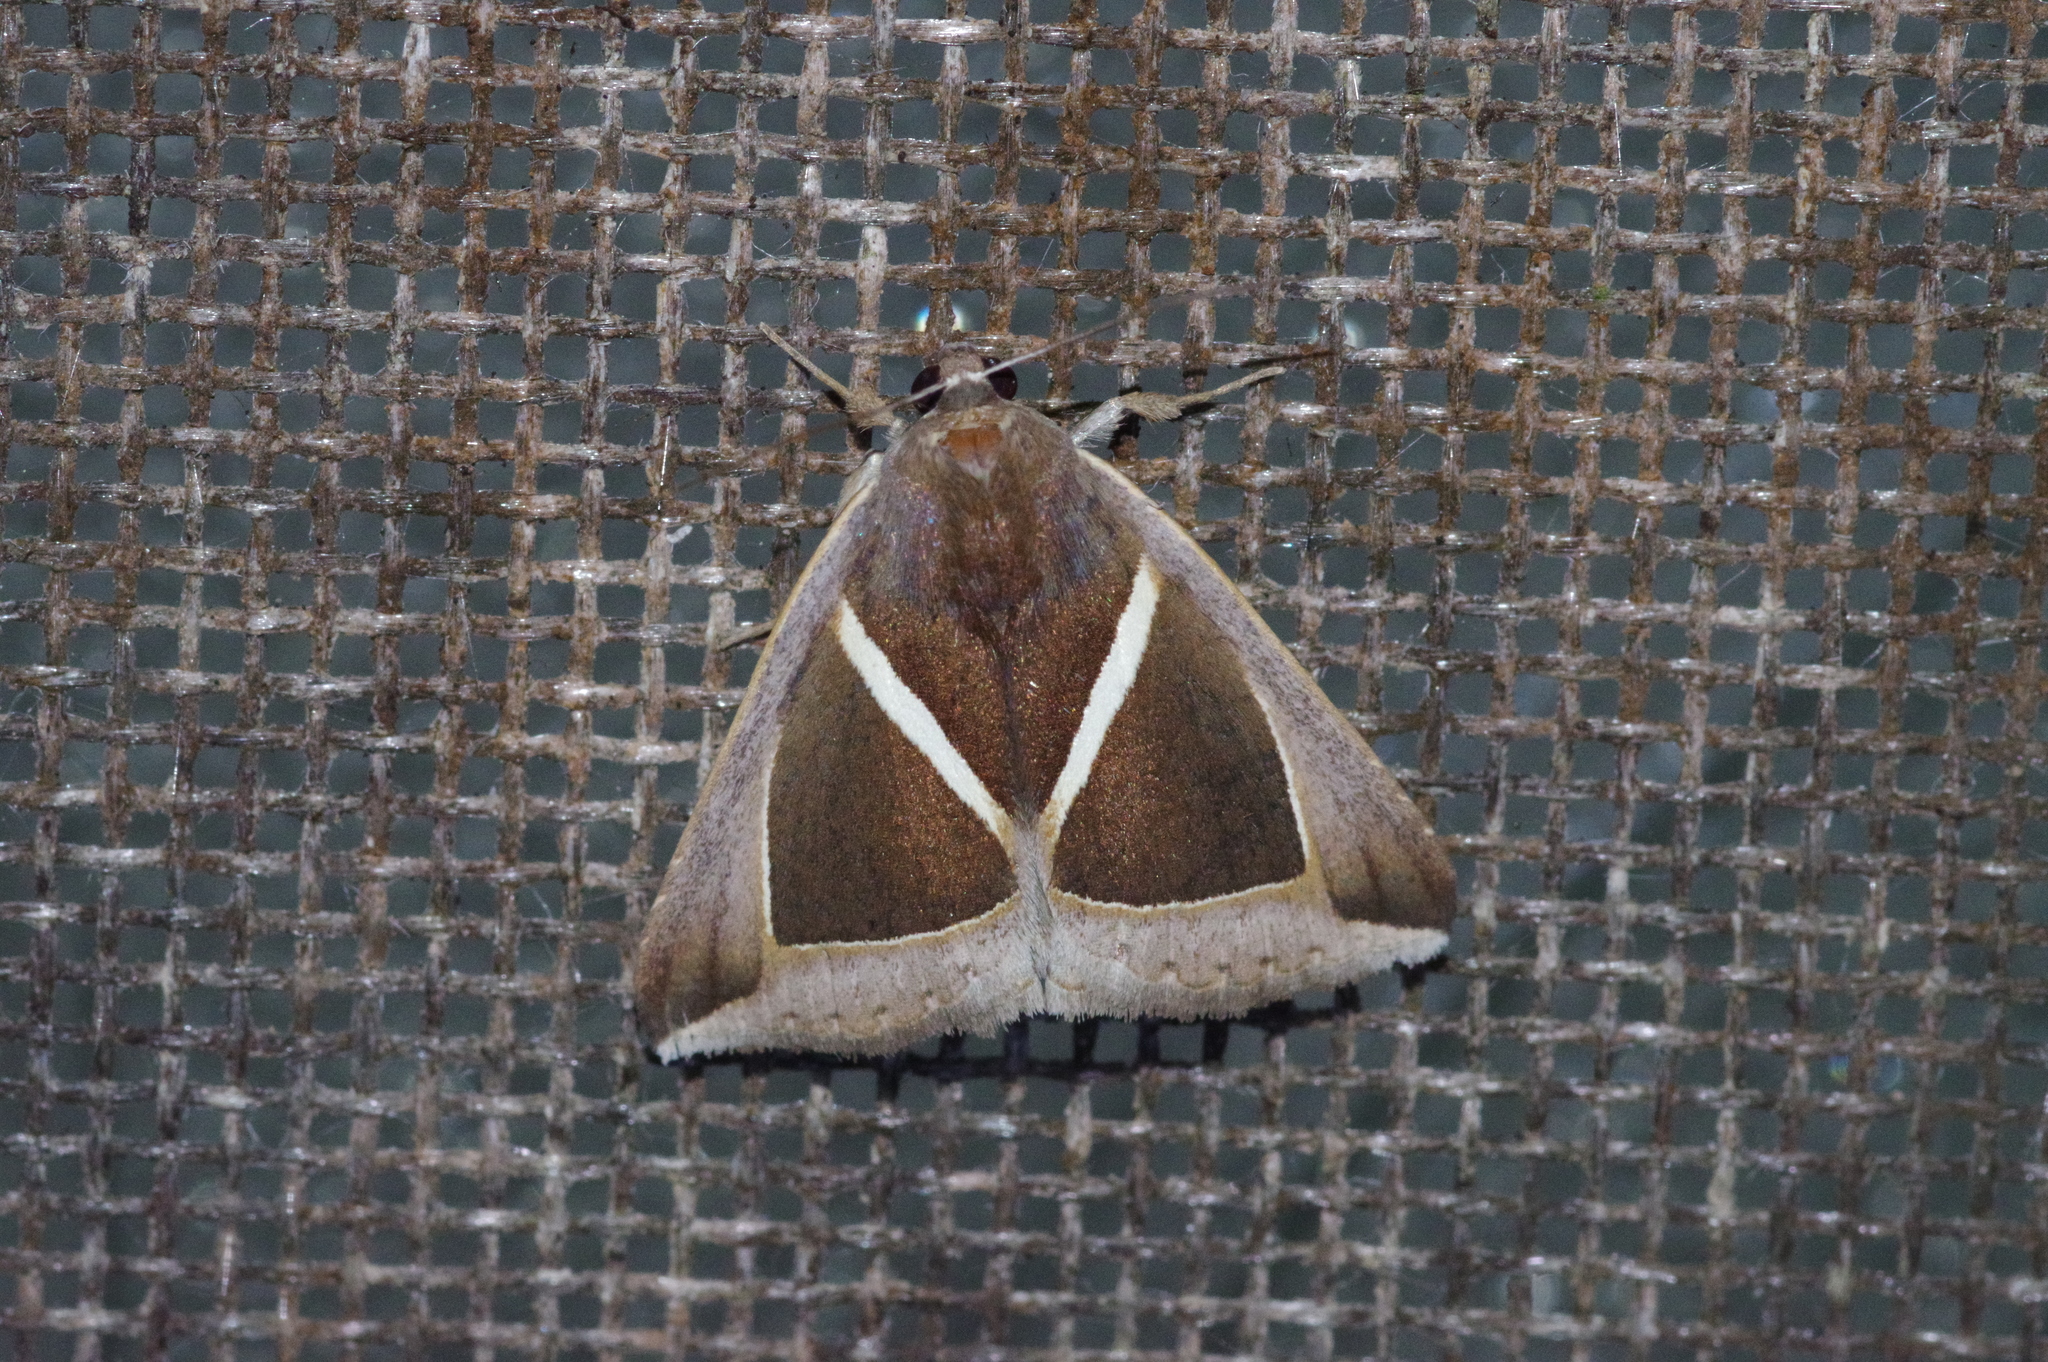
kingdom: Animalia
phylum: Arthropoda
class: Insecta
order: Lepidoptera
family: Erebidae
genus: Chalciope
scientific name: Chalciope mygdon
